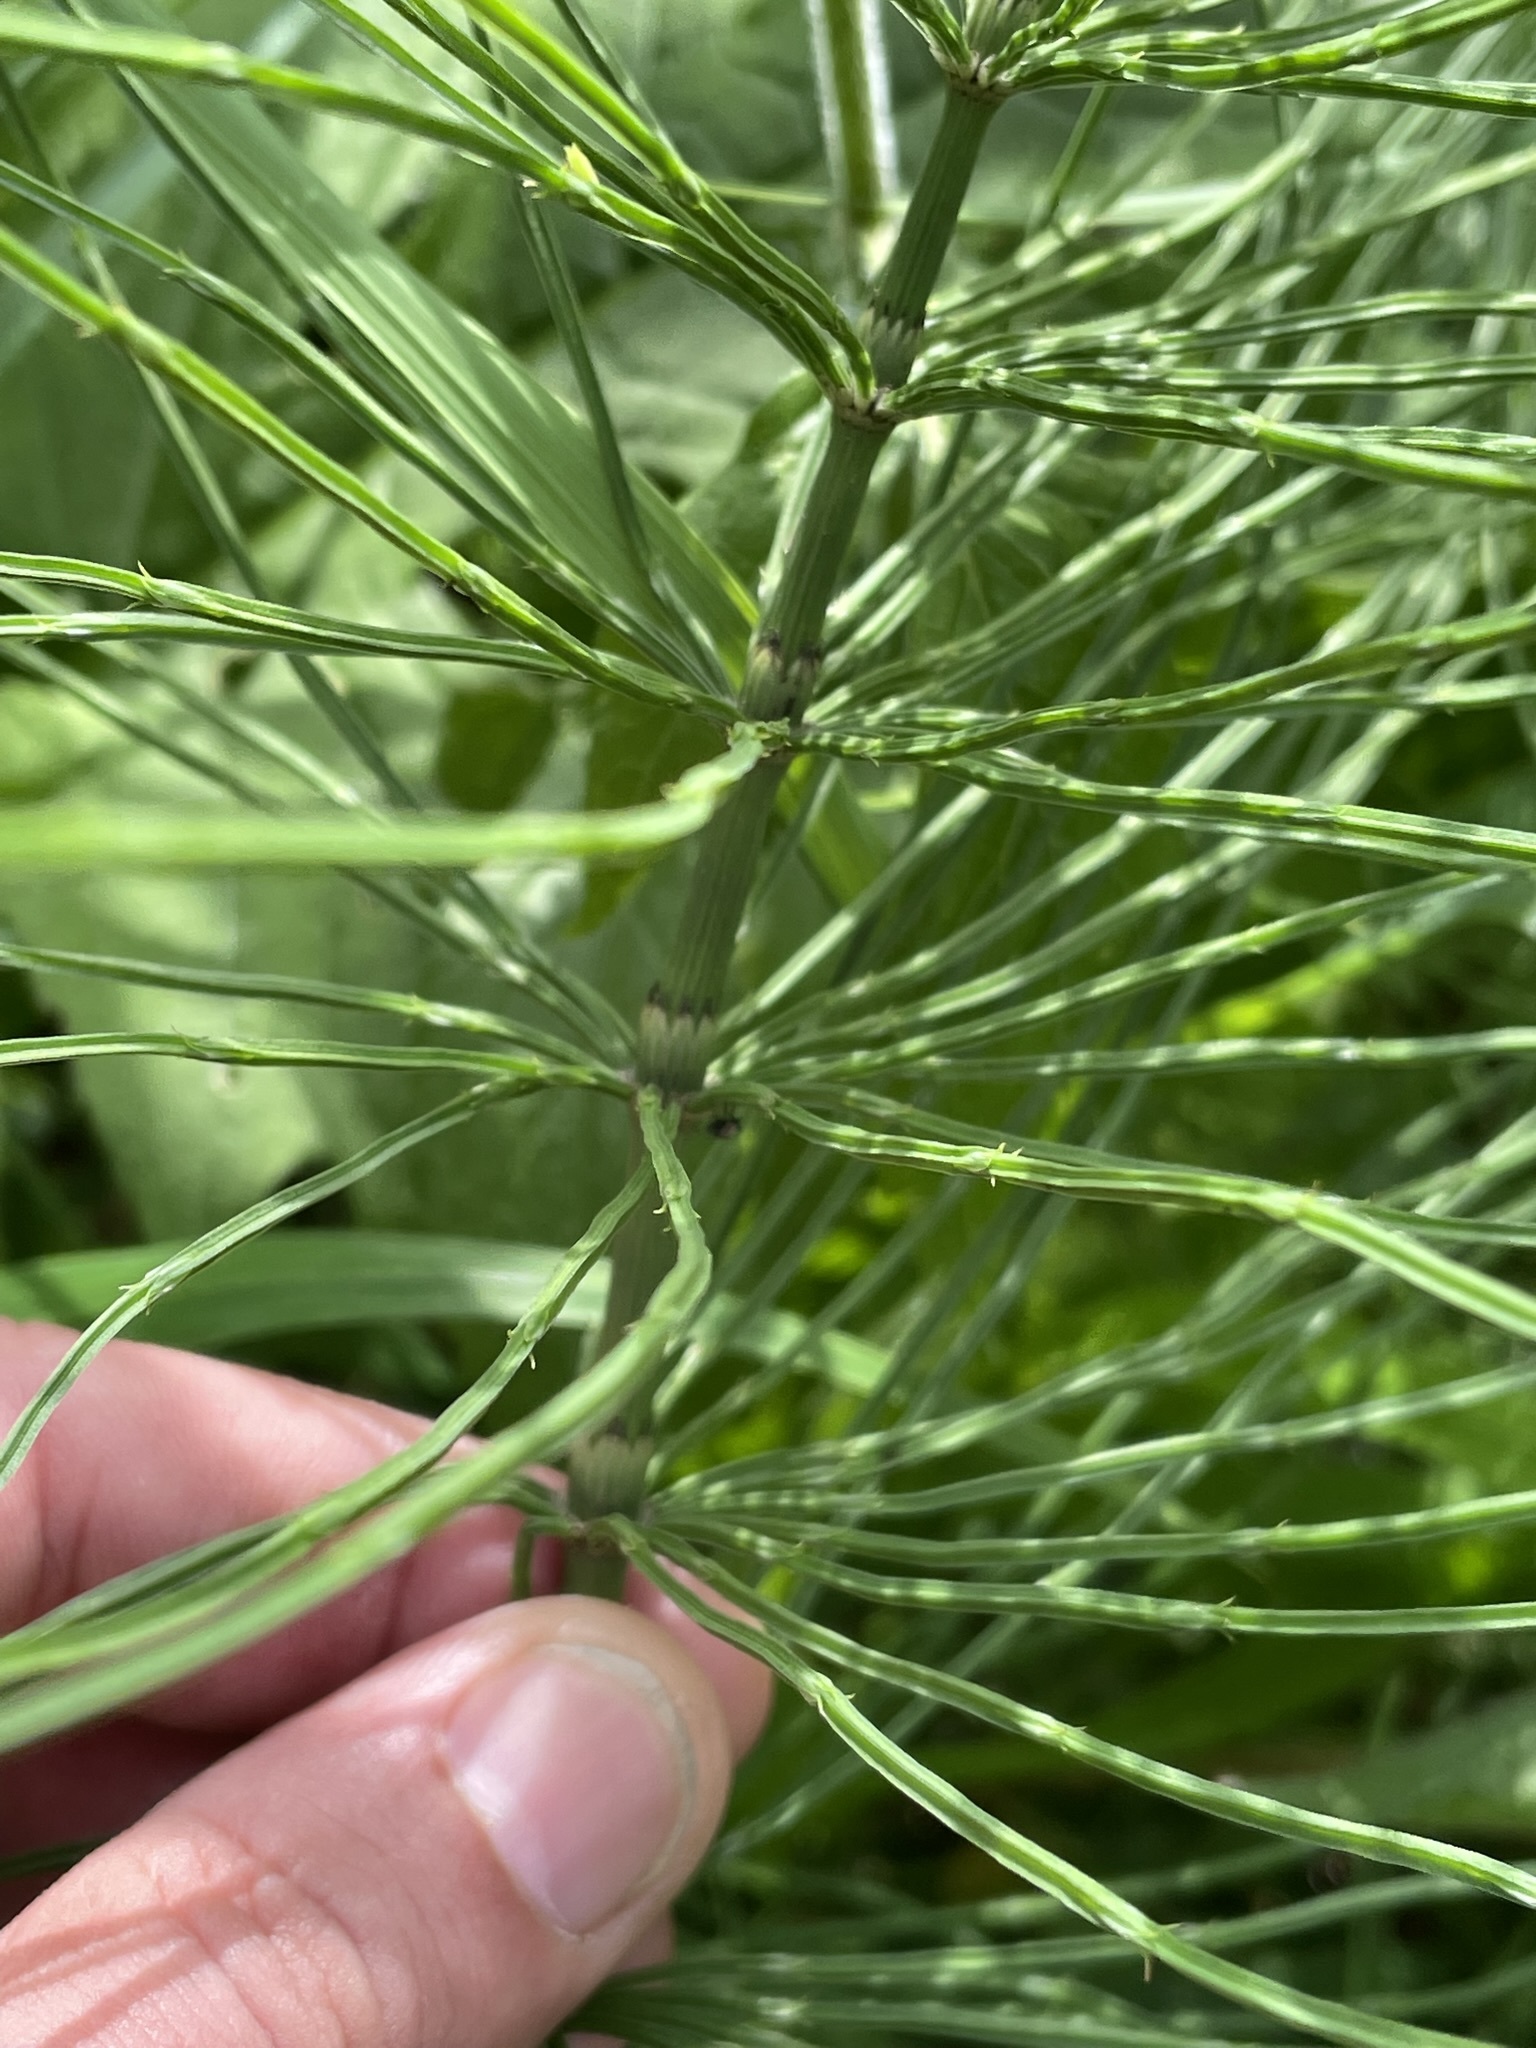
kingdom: Plantae
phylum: Tracheophyta
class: Polypodiopsida
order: Equisetales
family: Equisetaceae
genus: Equisetum
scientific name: Equisetum arvense
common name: Field horsetail
